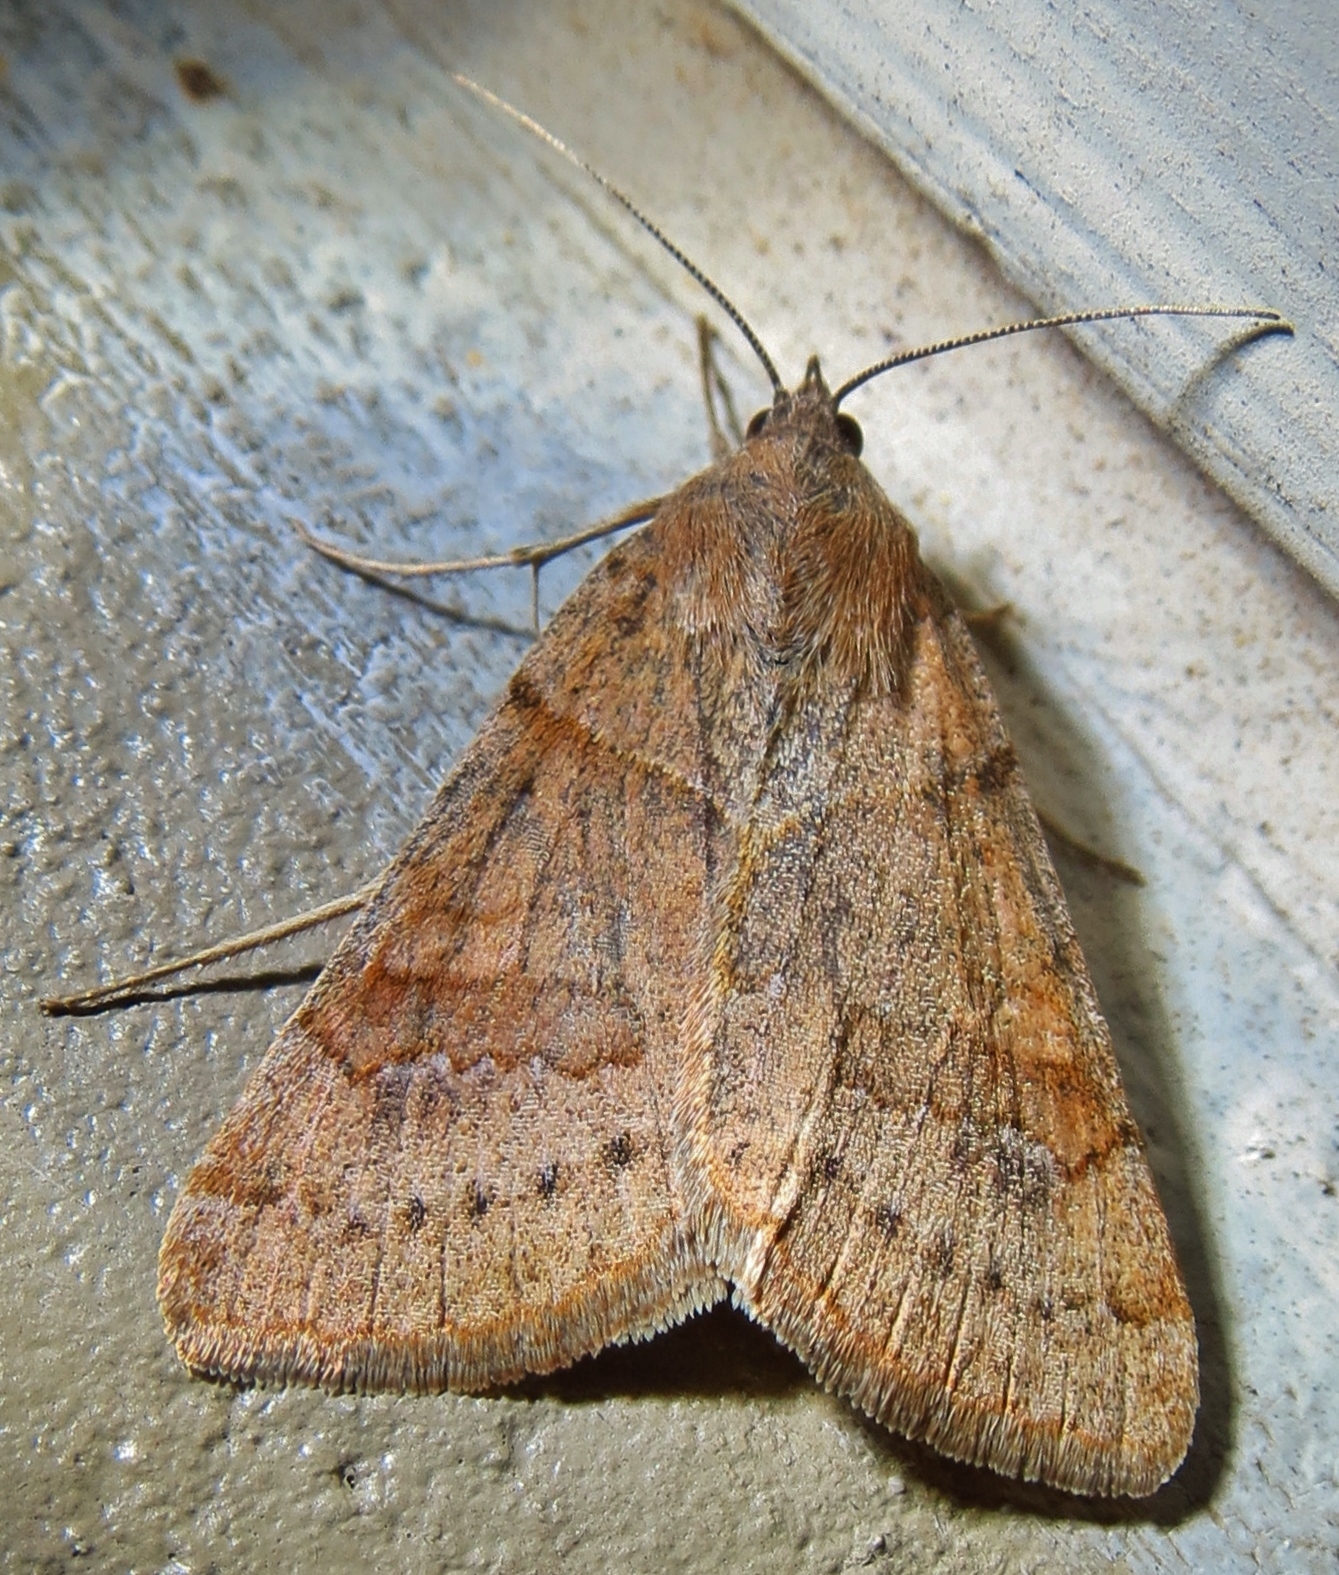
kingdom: Animalia
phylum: Arthropoda
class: Insecta
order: Lepidoptera
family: Erebidae
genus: Caenurgina
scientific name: Caenurgina erechtea
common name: Forage looper moth
